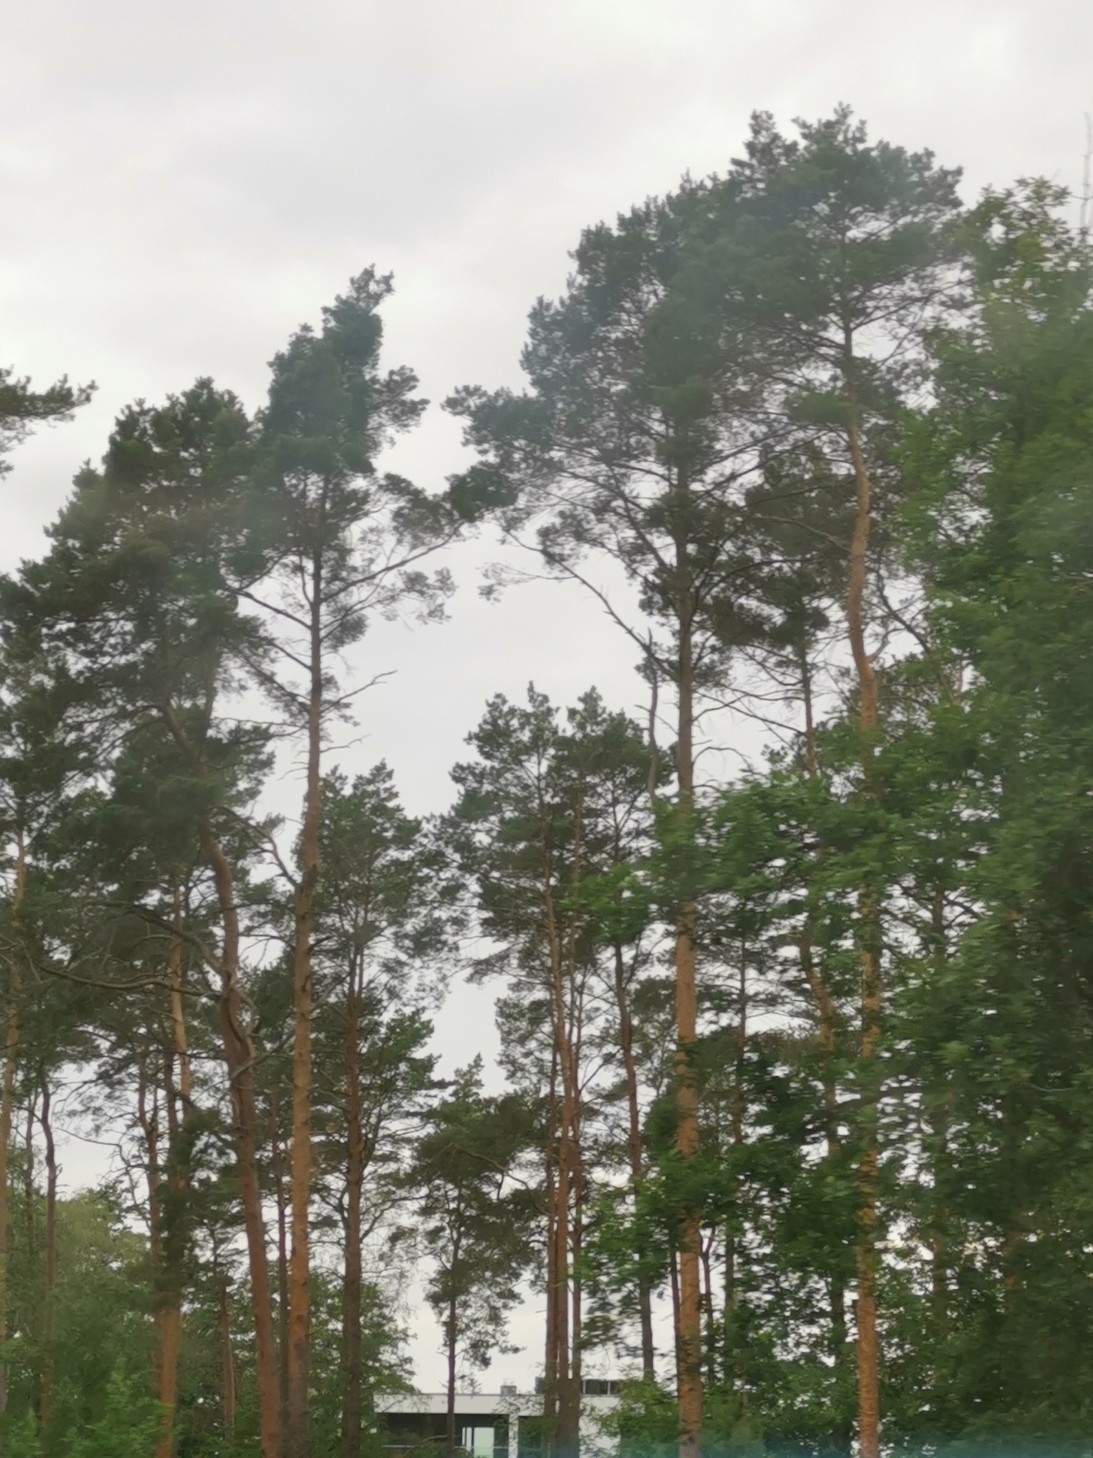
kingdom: Plantae
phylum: Tracheophyta
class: Pinopsida
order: Pinales
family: Pinaceae
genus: Pinus
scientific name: Pinus sylvestris
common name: Scots pine
